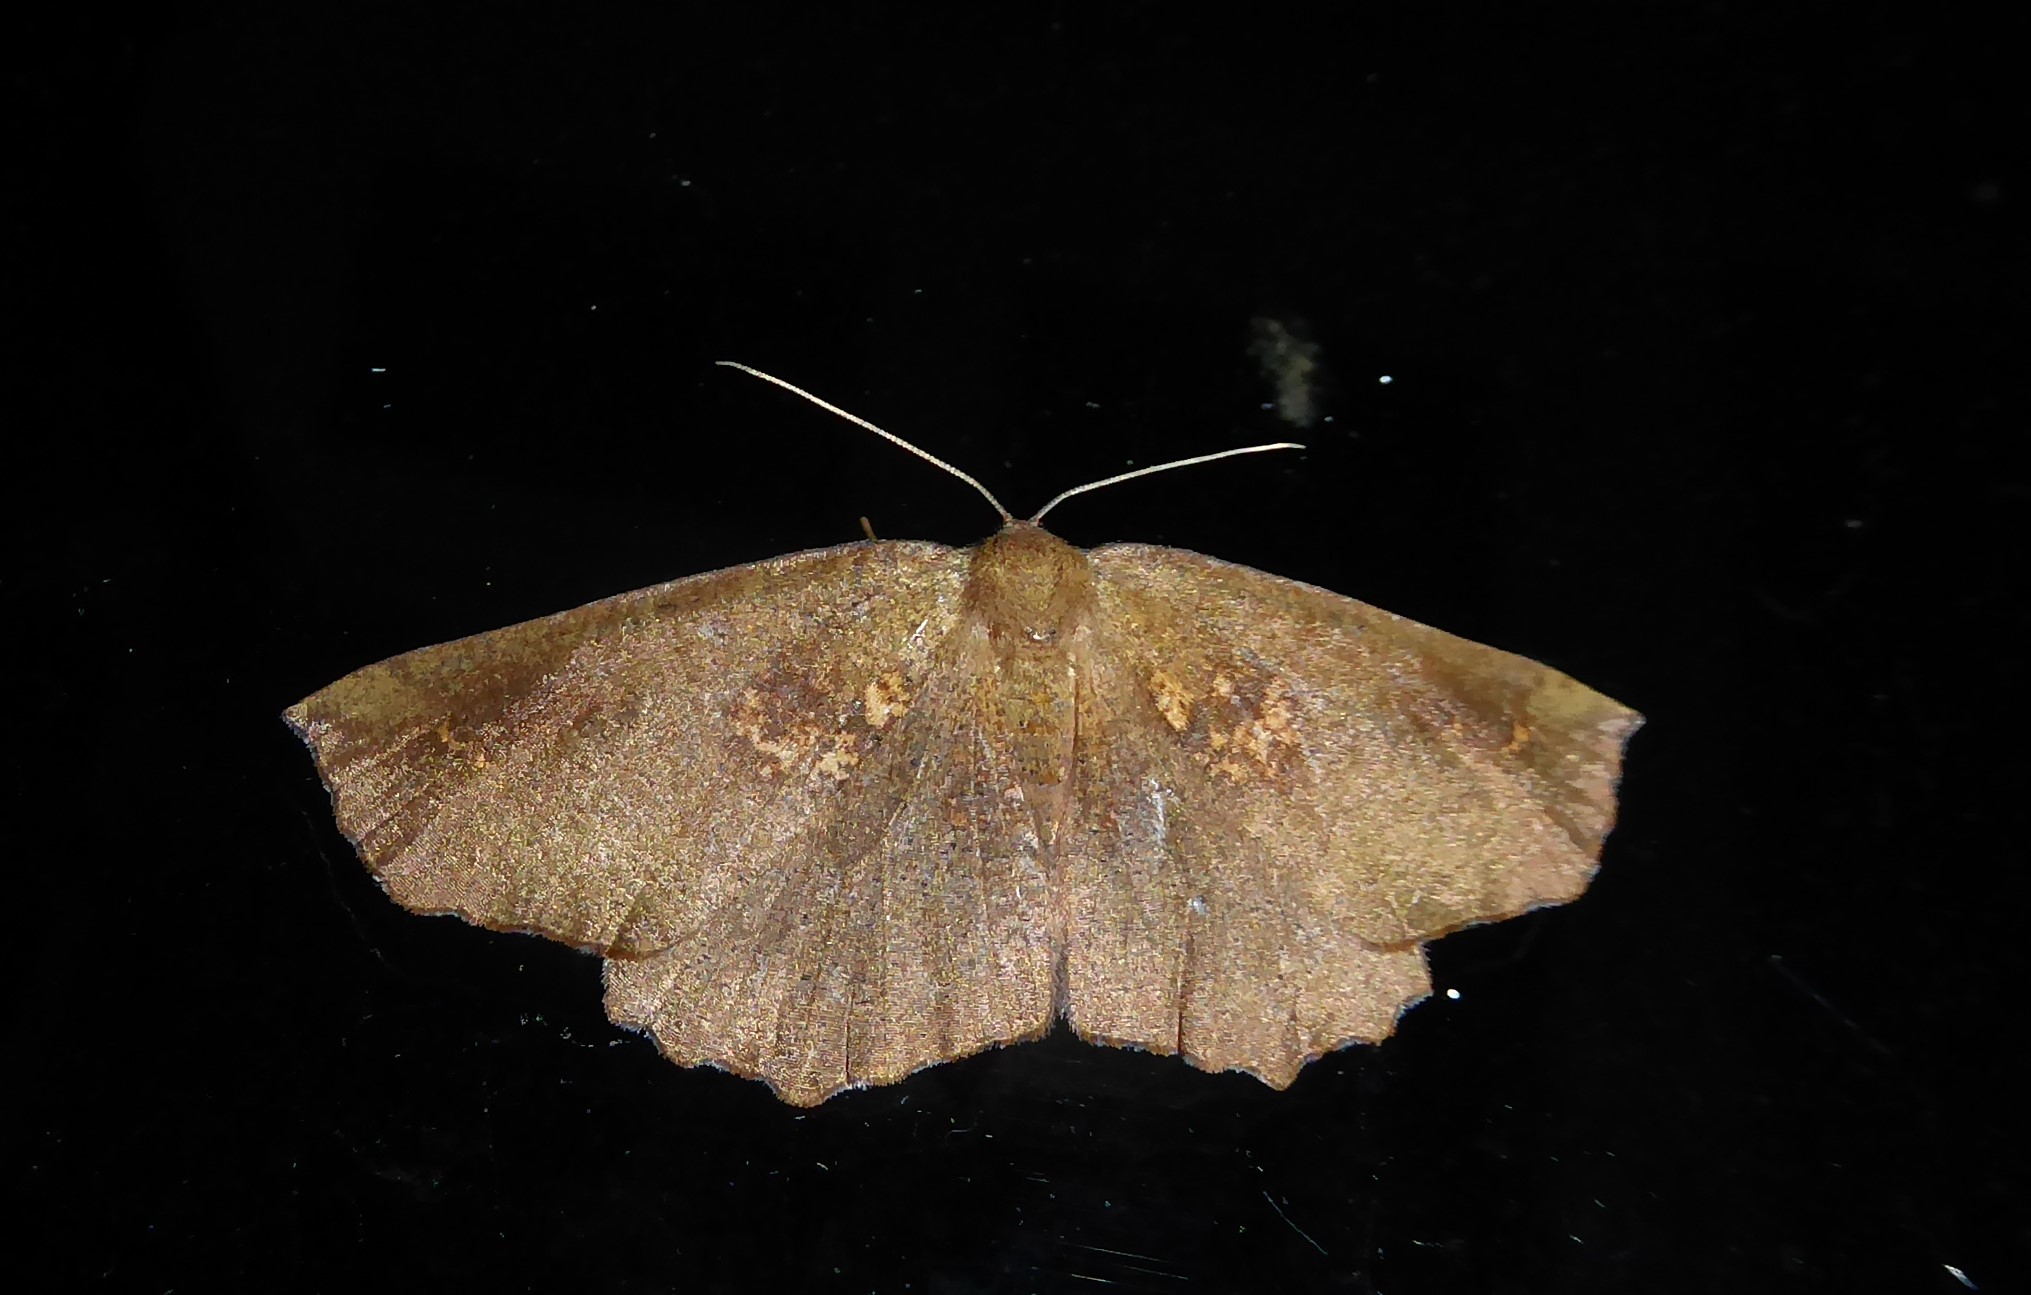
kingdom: Animalia
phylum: Arthropoda
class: Insecta
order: Lepidoptera
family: Geometridae
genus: Xyridacma
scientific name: Xyridacma ustaria
